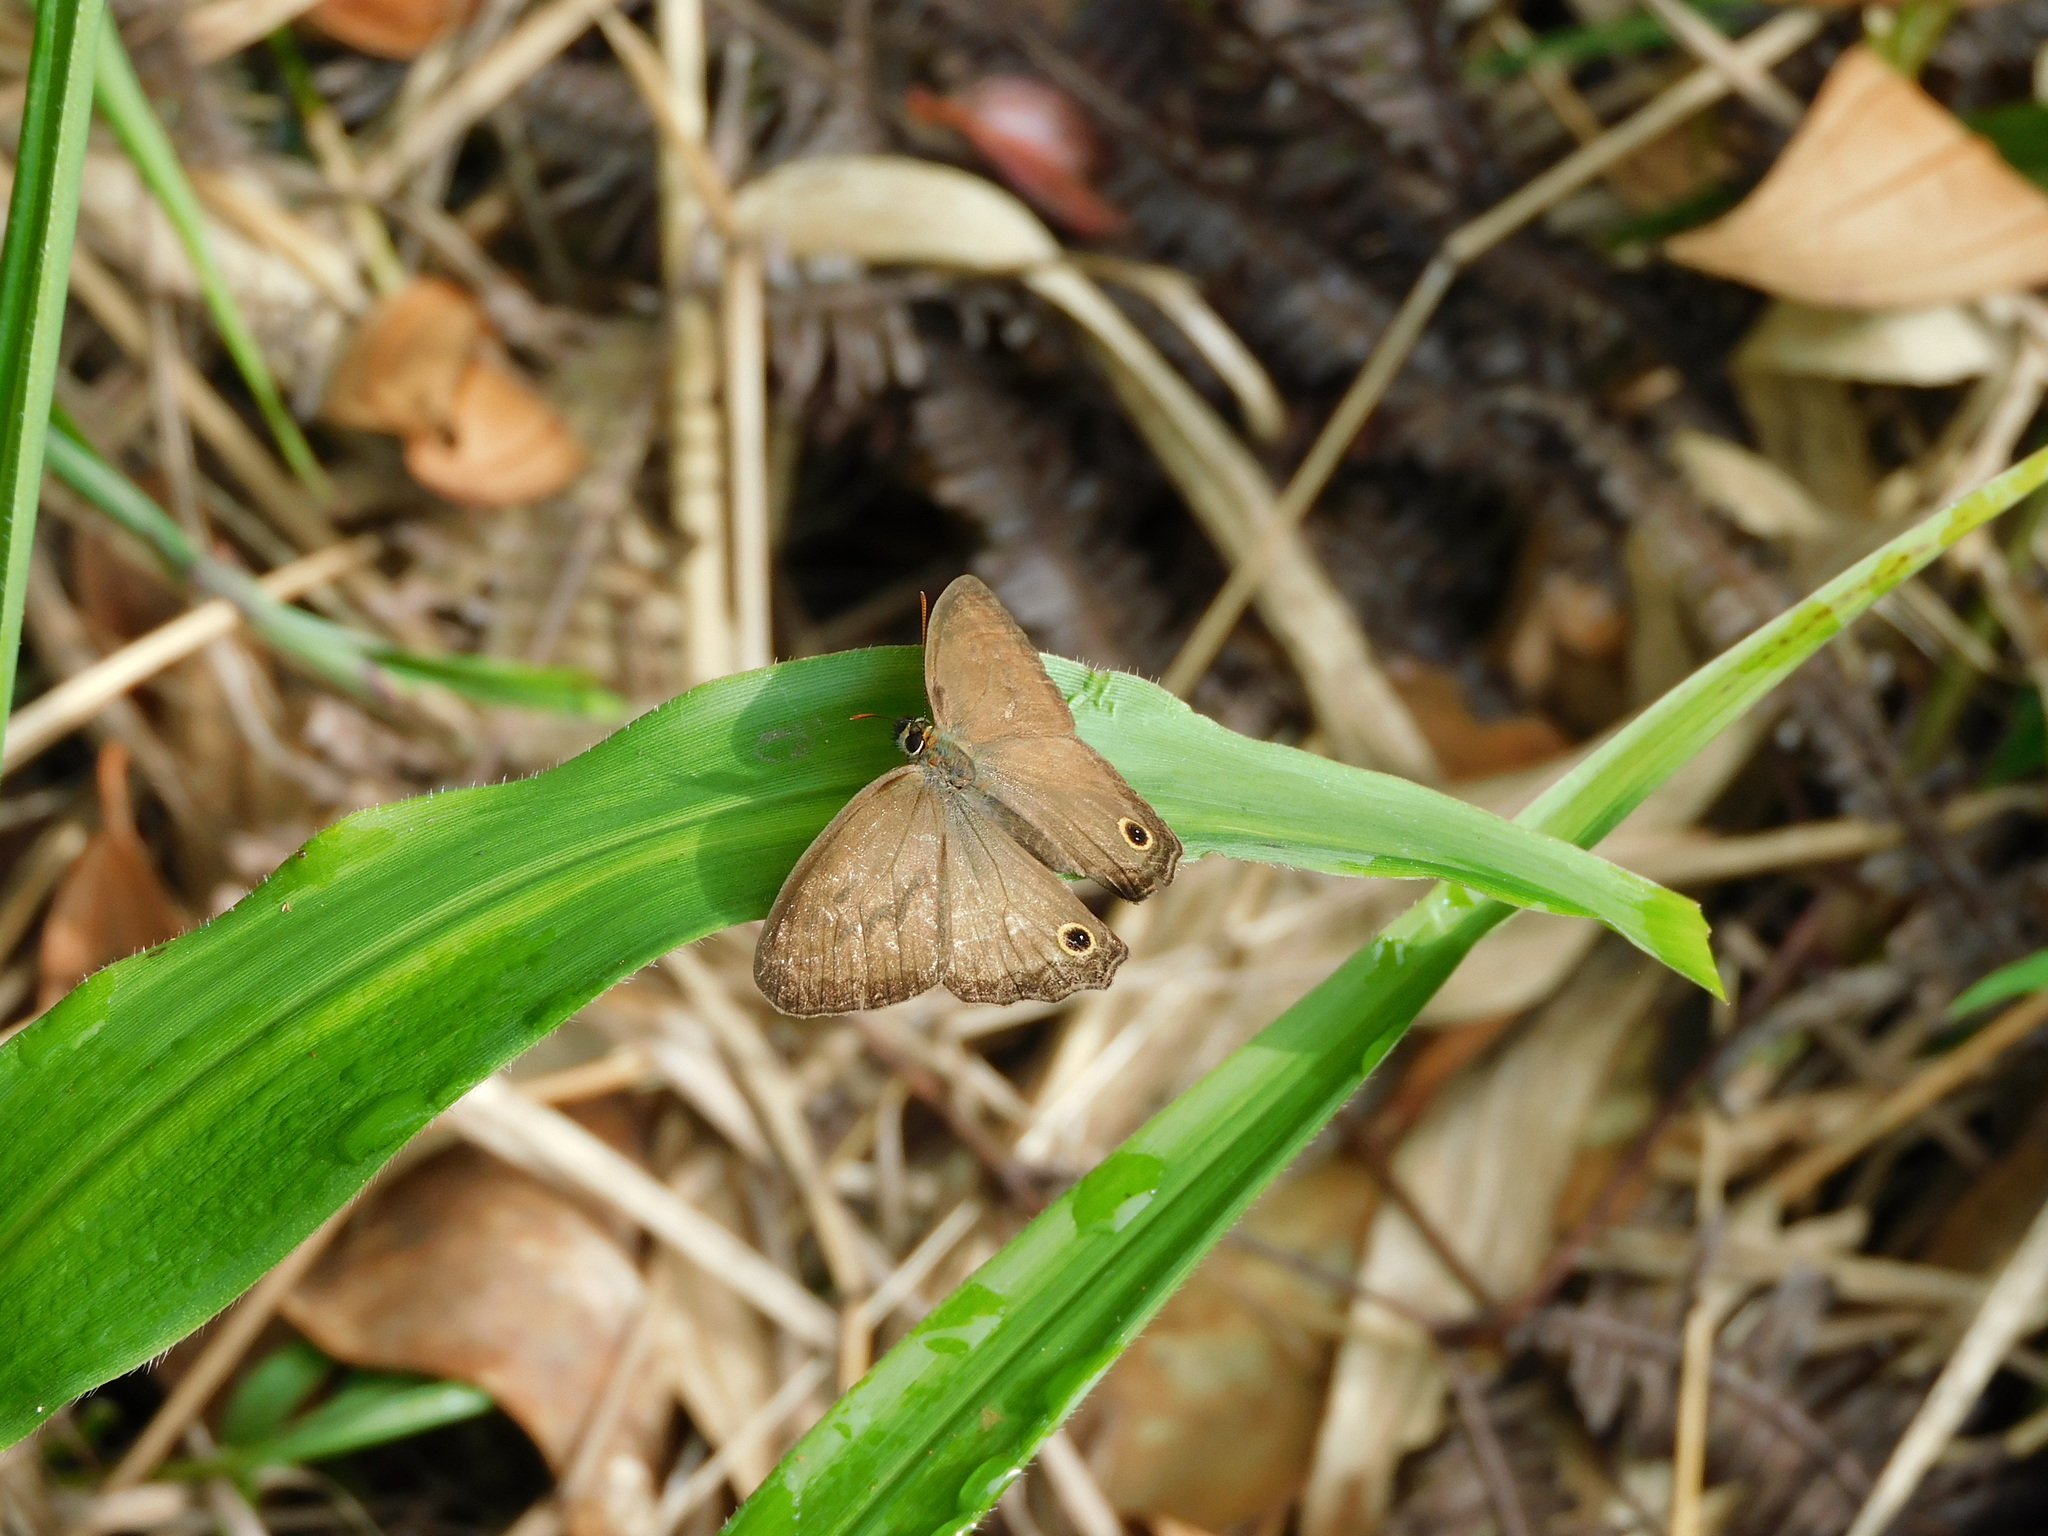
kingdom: Animalia
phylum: Arthropoda
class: Insecta
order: Lepidoptera
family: Nymphalidae
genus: Graphita
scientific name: Graphita griphe
